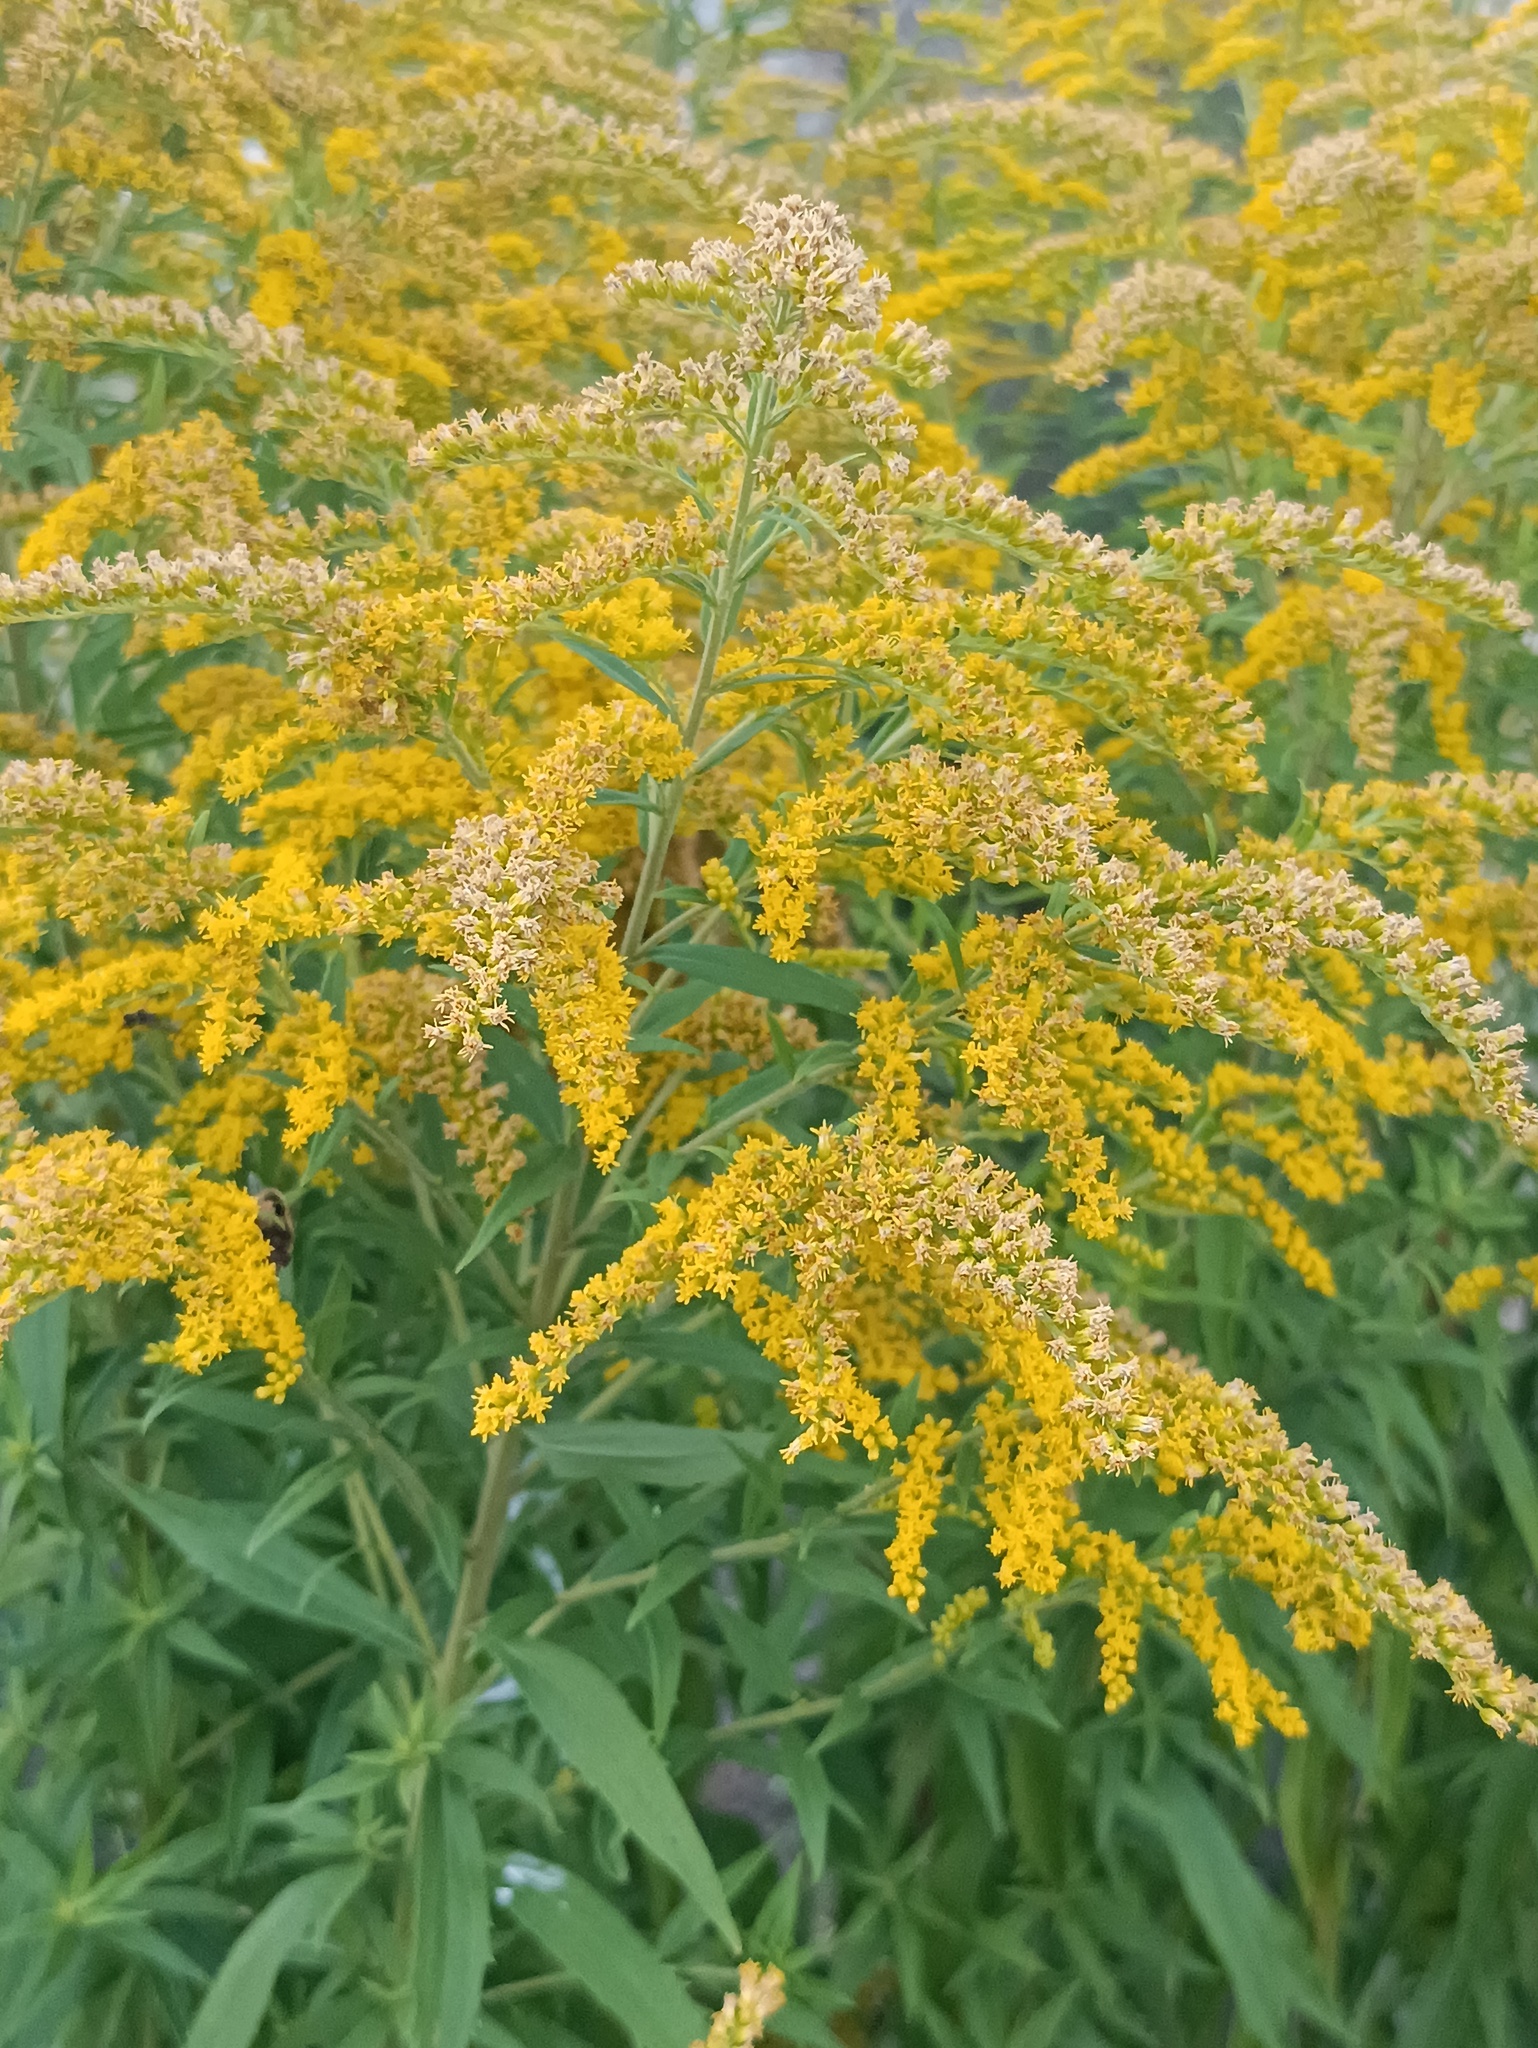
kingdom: Plantae
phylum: Tracheophyta
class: Magnoliopsida
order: Asterales
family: Asteraceae
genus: Solidago
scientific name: Solidago canadensis
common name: Canada goldenrod
